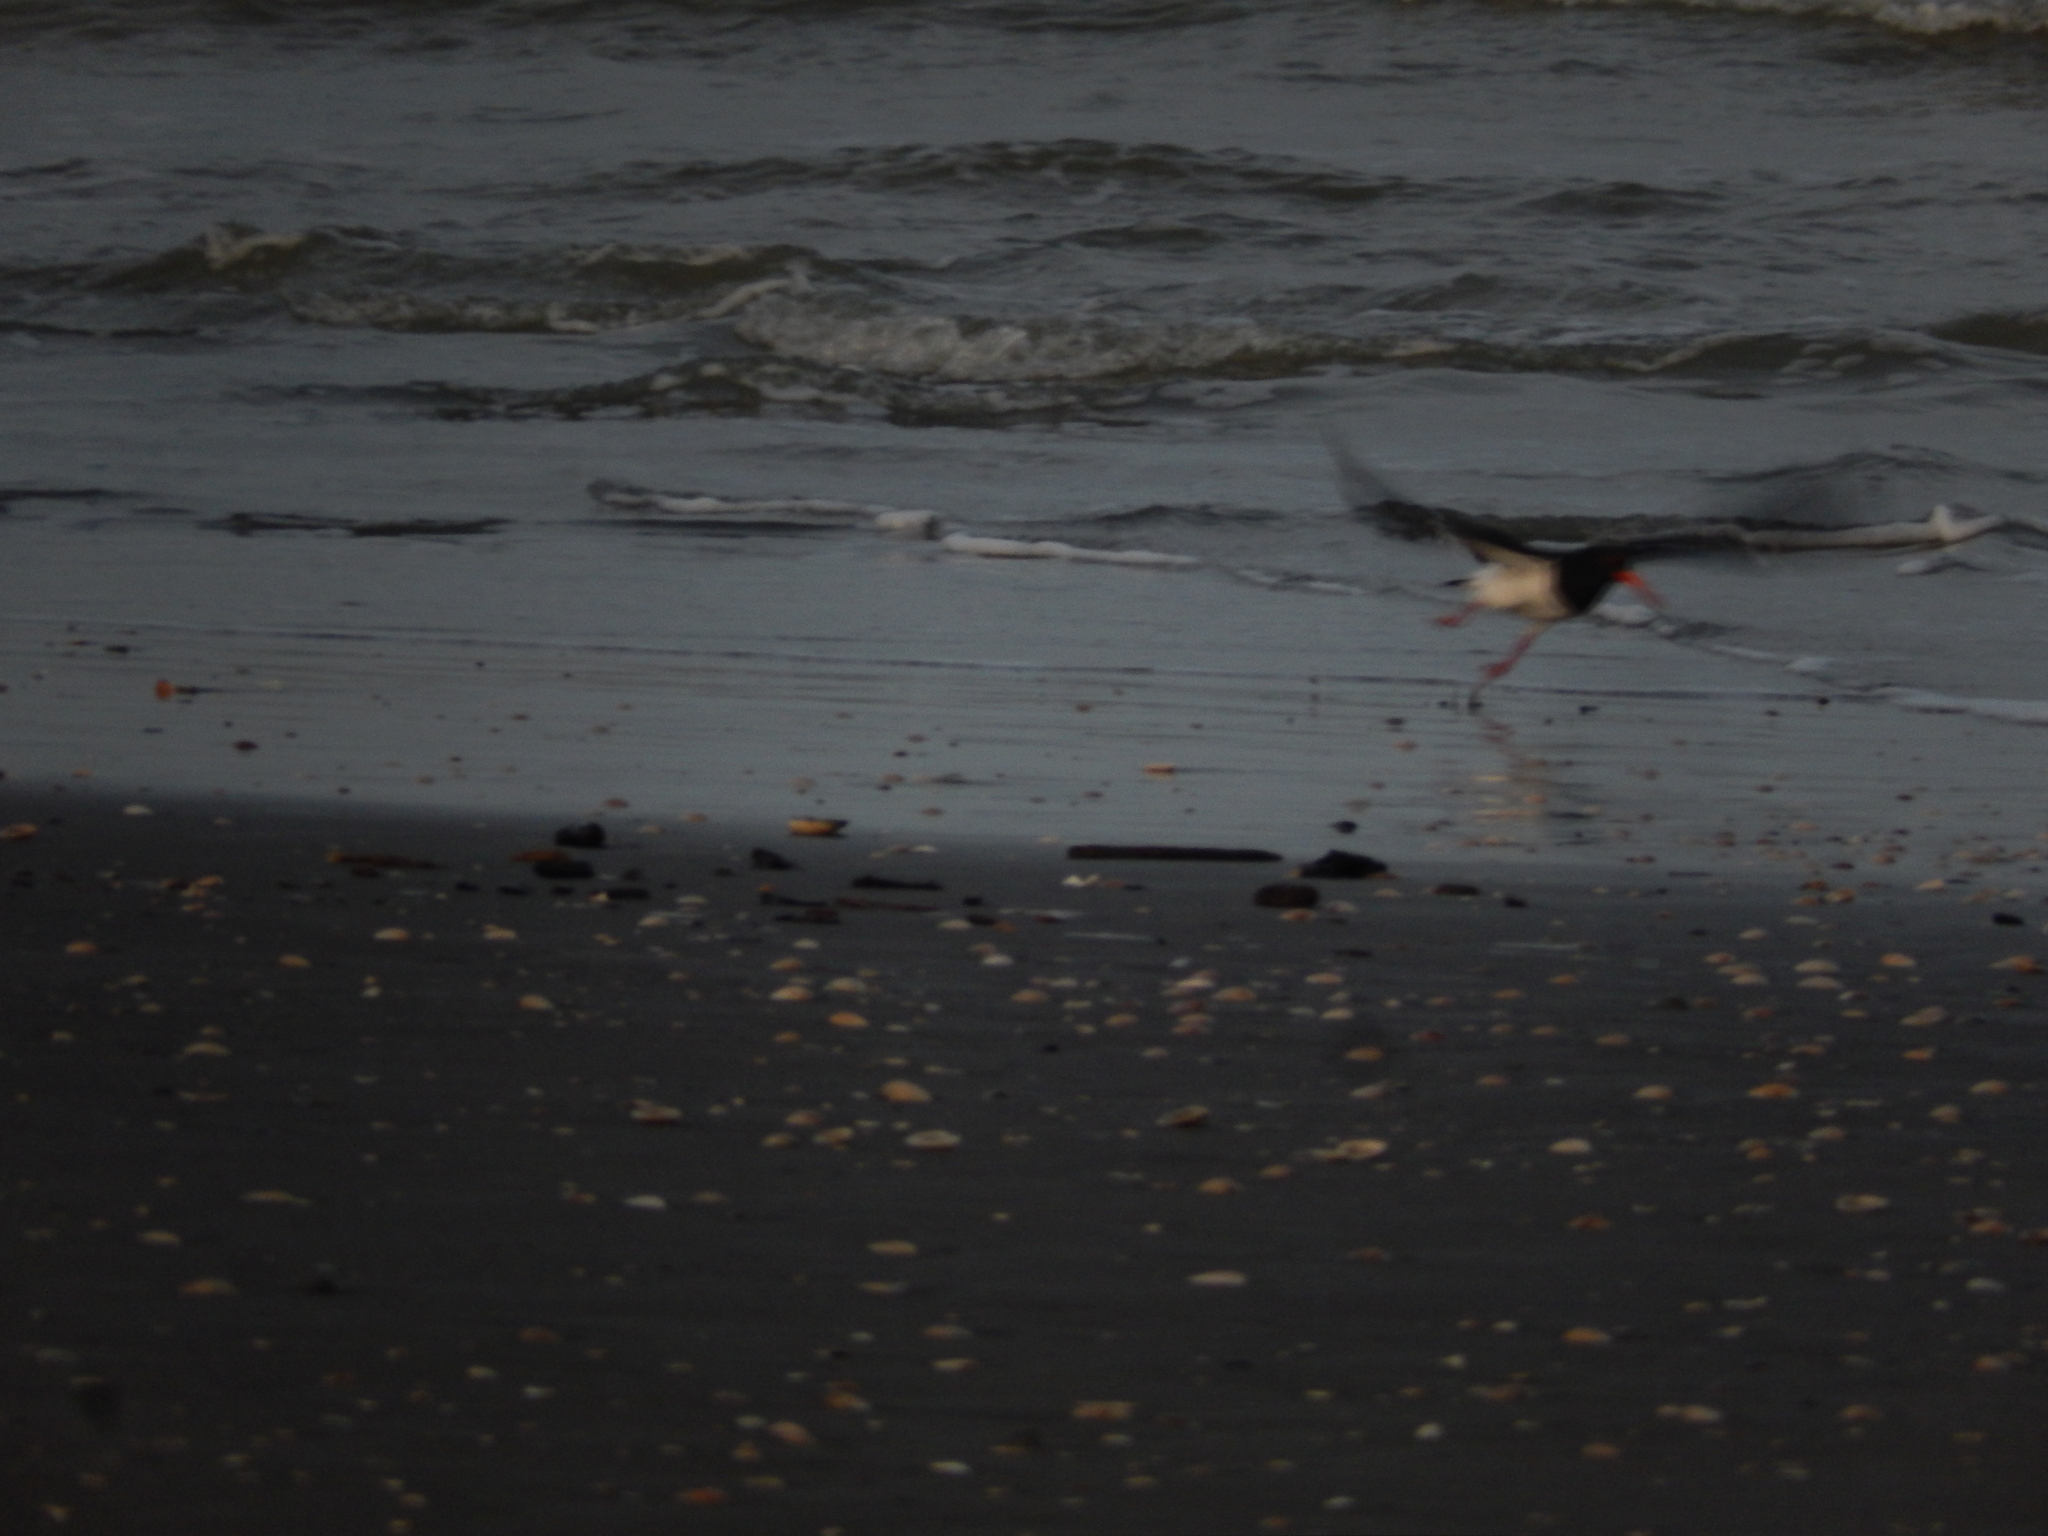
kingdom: Animalia
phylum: Chordata
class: Aves
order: Charadriiformes
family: Haematopodidae
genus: Haematopus
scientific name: Haematopus finschi
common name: South island oystercatcher
